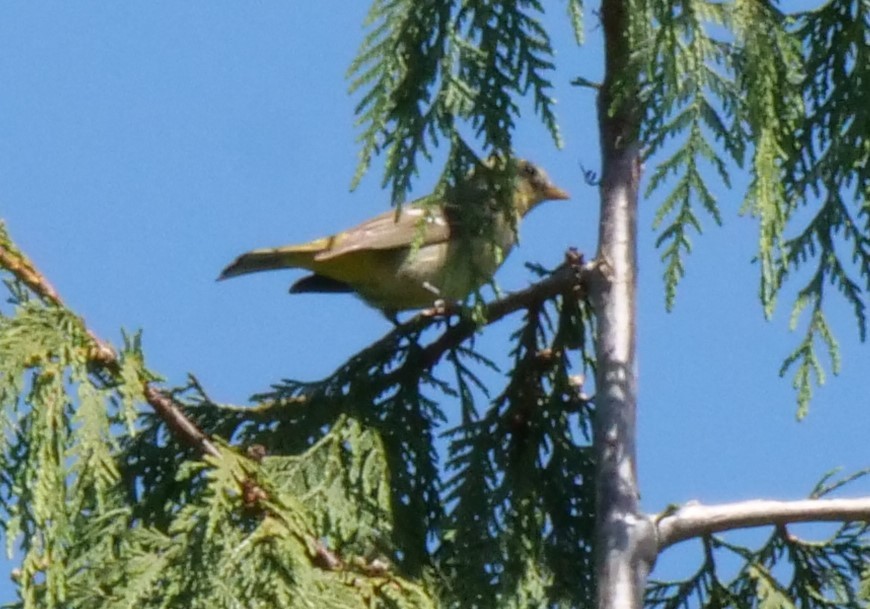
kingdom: Animalia
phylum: Chordata
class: Aves
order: Passeriformes
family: Cardinalidae
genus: Piranga
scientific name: Piranga ludoviciana
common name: Western tanager
